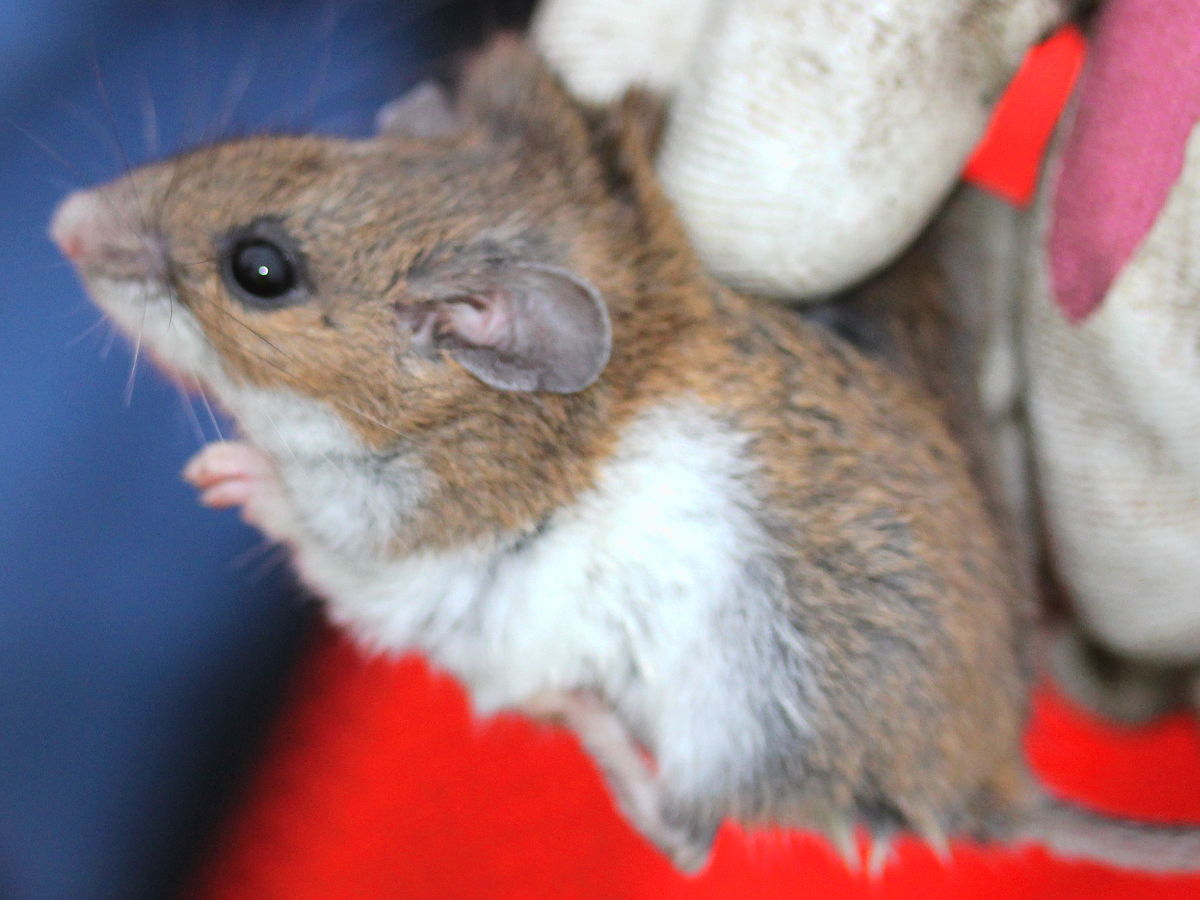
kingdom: Animalia
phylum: Chordata
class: Mammalia
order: Rodentia
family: Cricetidae
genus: Peromyscus
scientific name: Peromyscus leucopus
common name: White-footed deermouse
